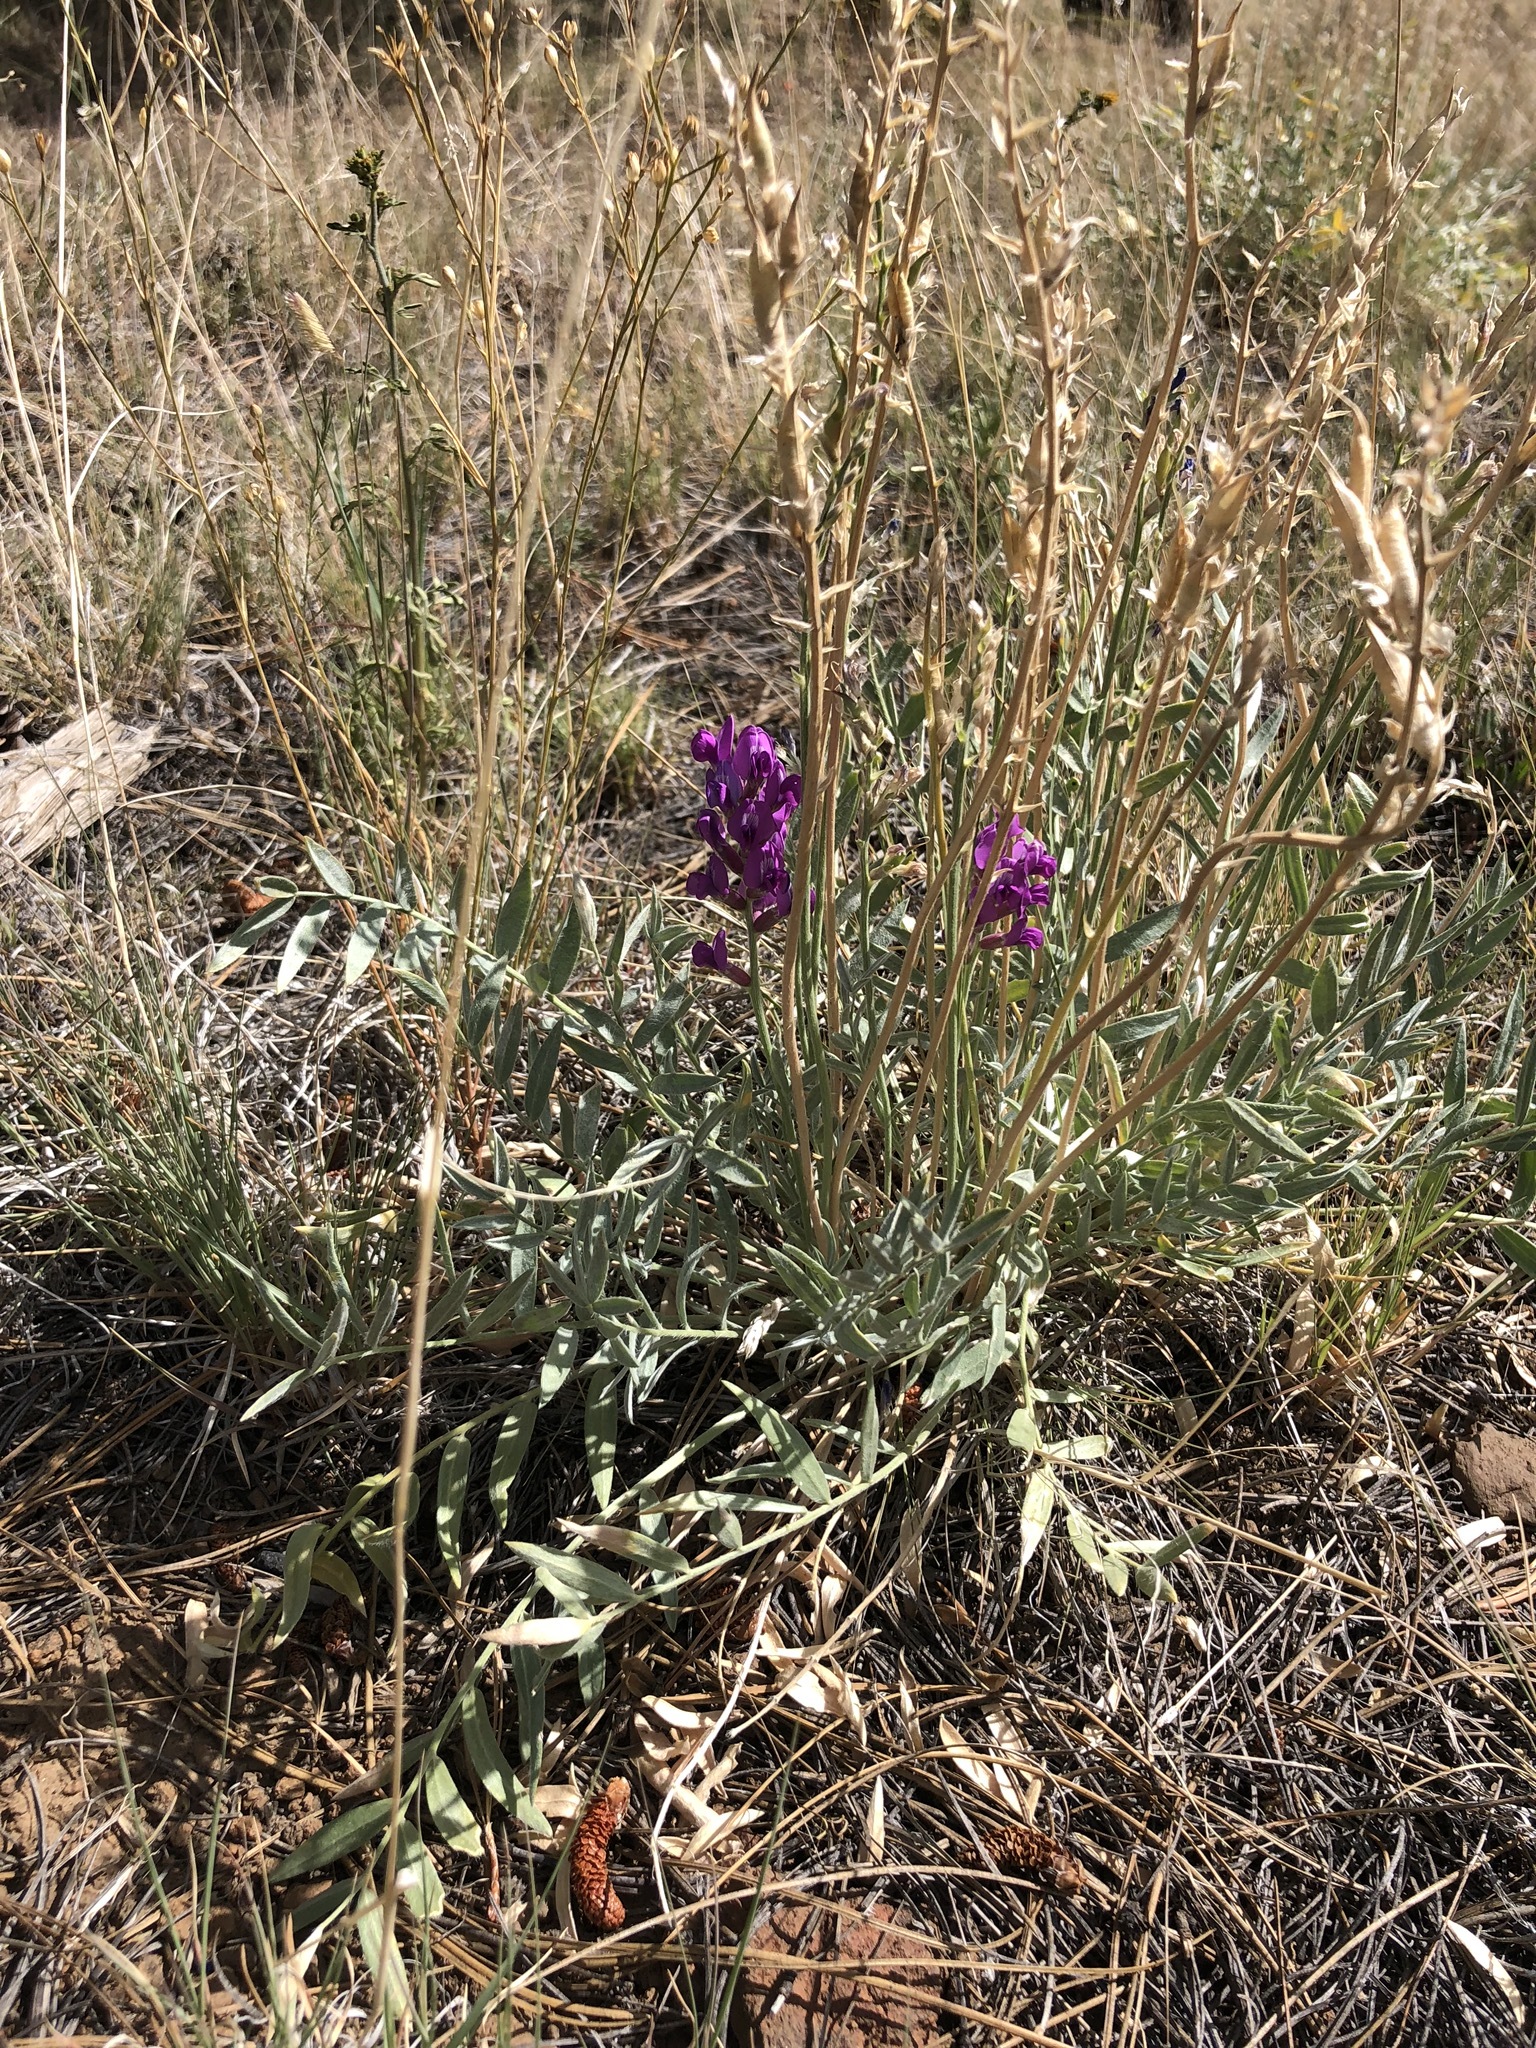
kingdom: Plantae
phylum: Tracheophyta
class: Magnoliopsida
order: Fabales
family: Fabaceae
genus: Oxytropis
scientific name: Oxytropis lambertii
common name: Purple locoweed
